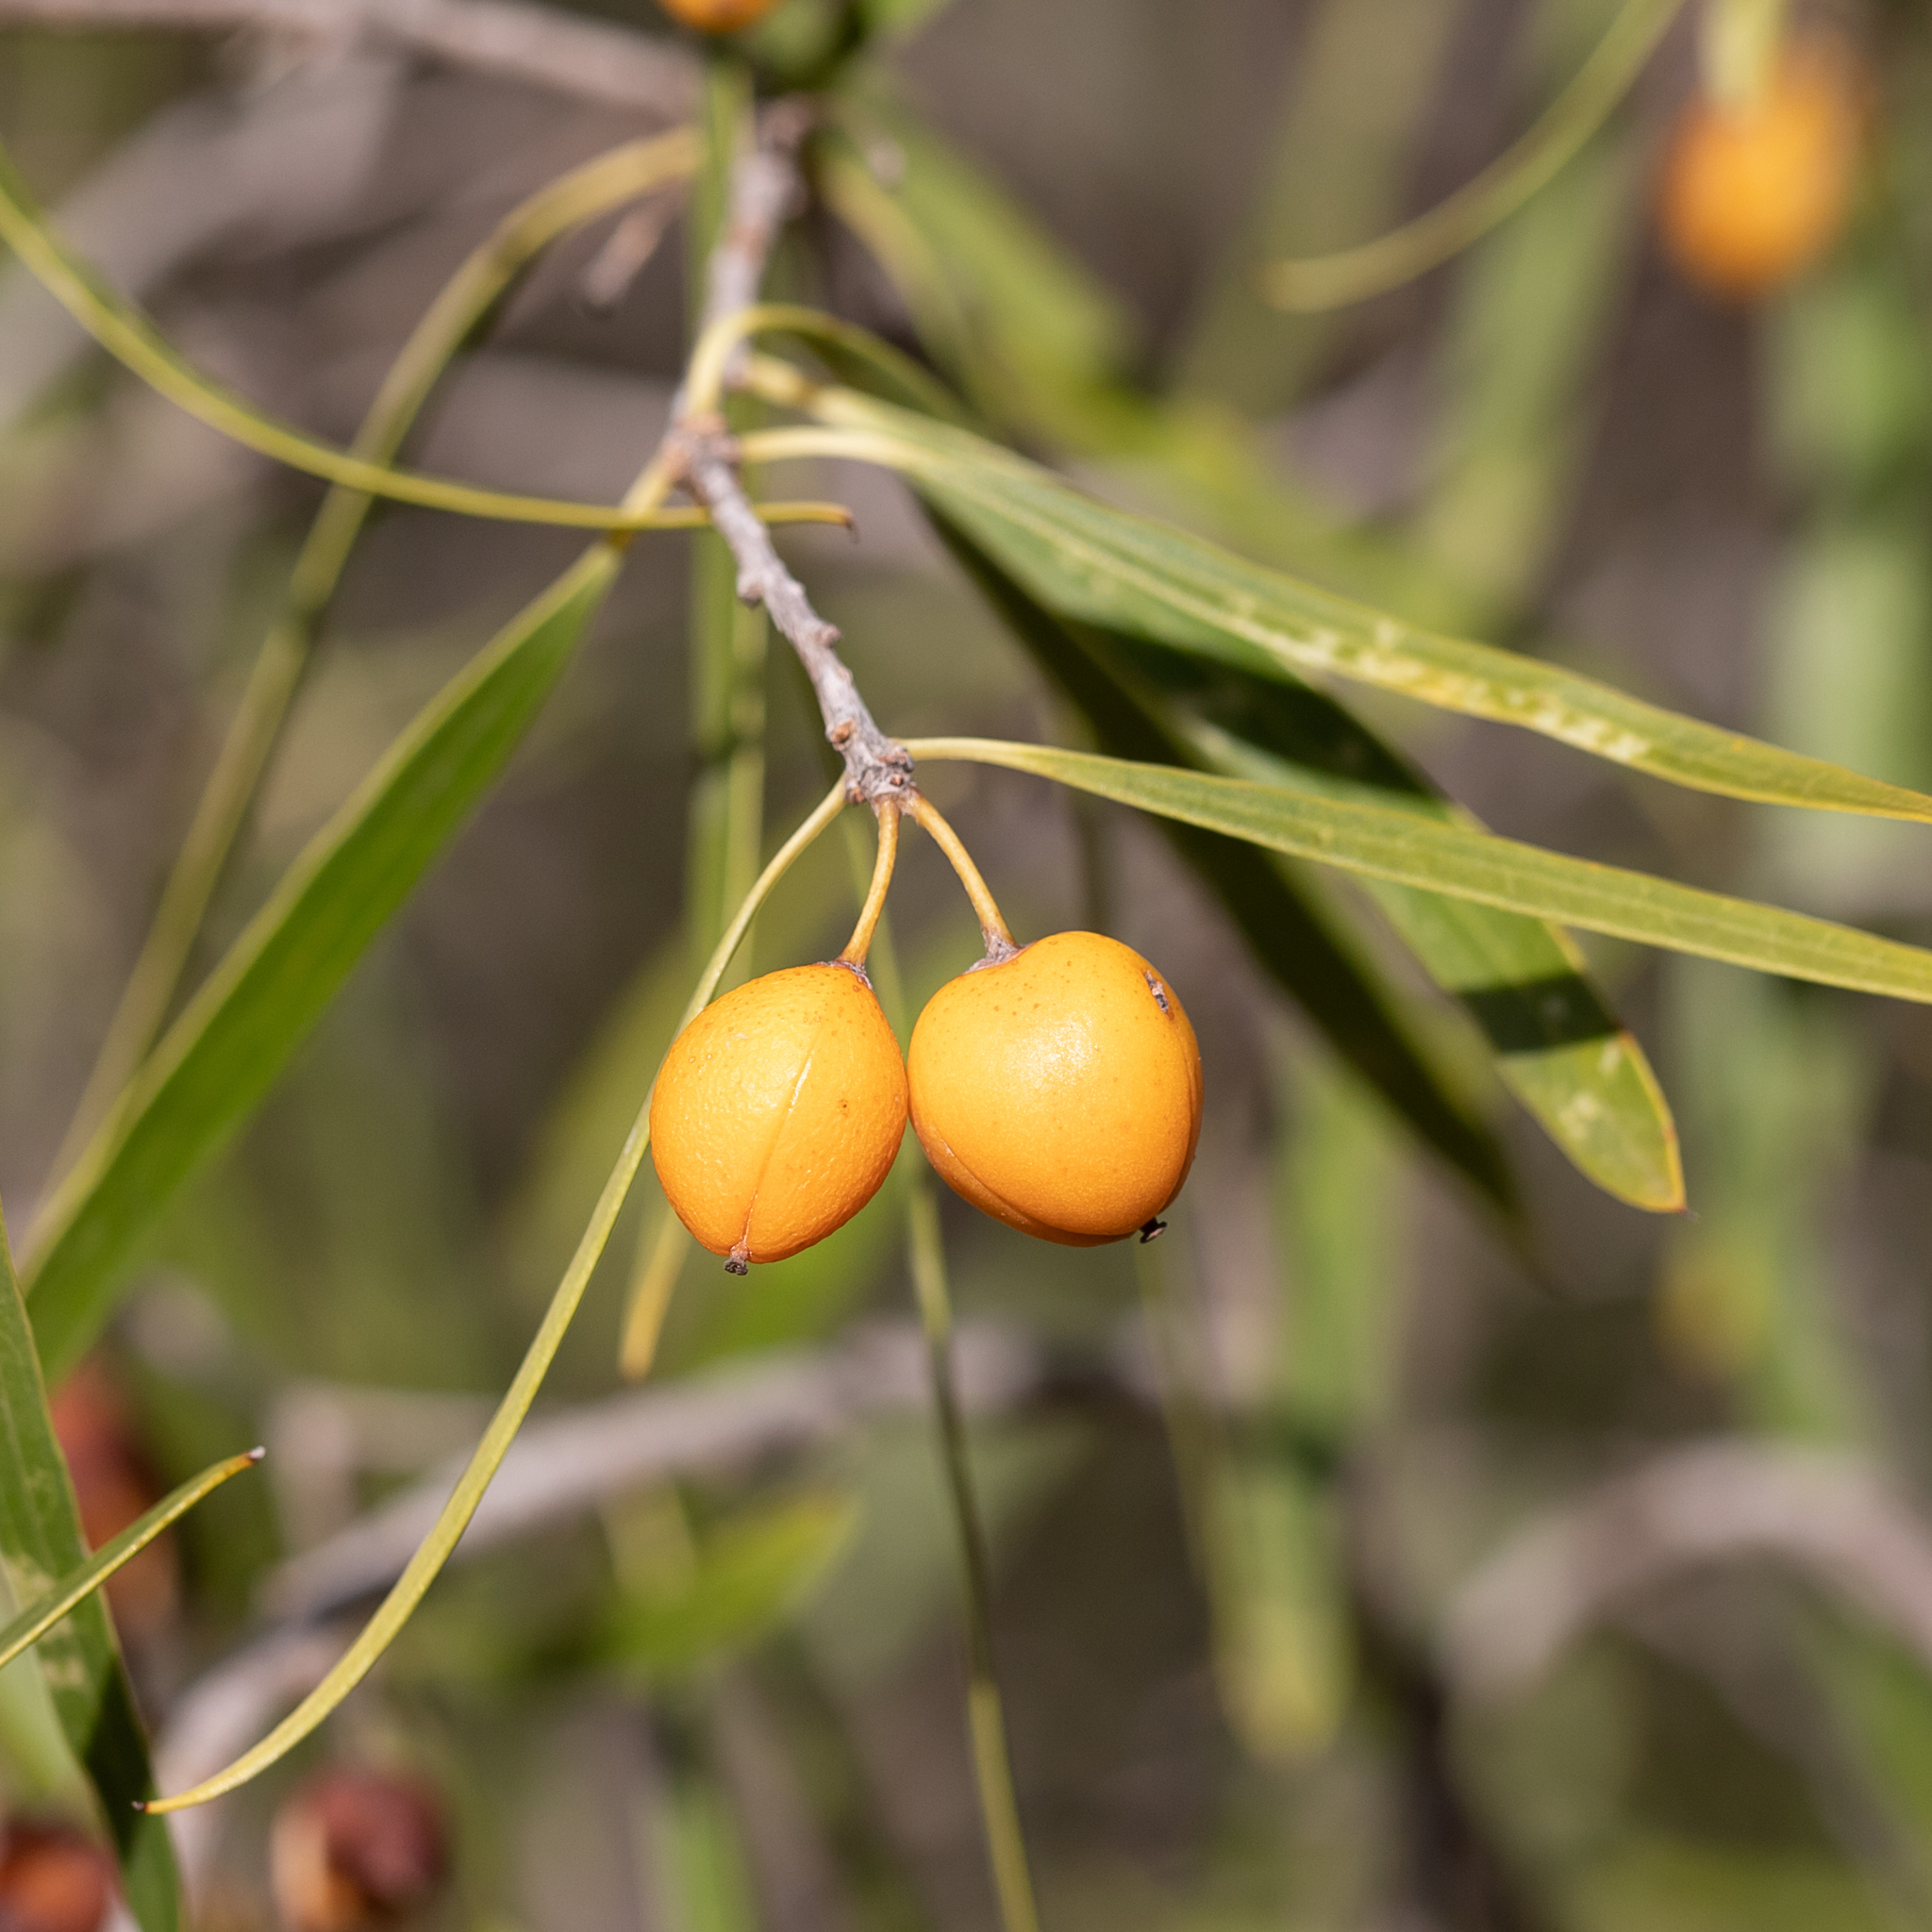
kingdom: Plantae
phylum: Tracheophyta
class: Magnoliopsida
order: Apiales
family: Pittosporaceae
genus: Pittosporum
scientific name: Pittosporum angustifolium
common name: Weeping pittosporum
